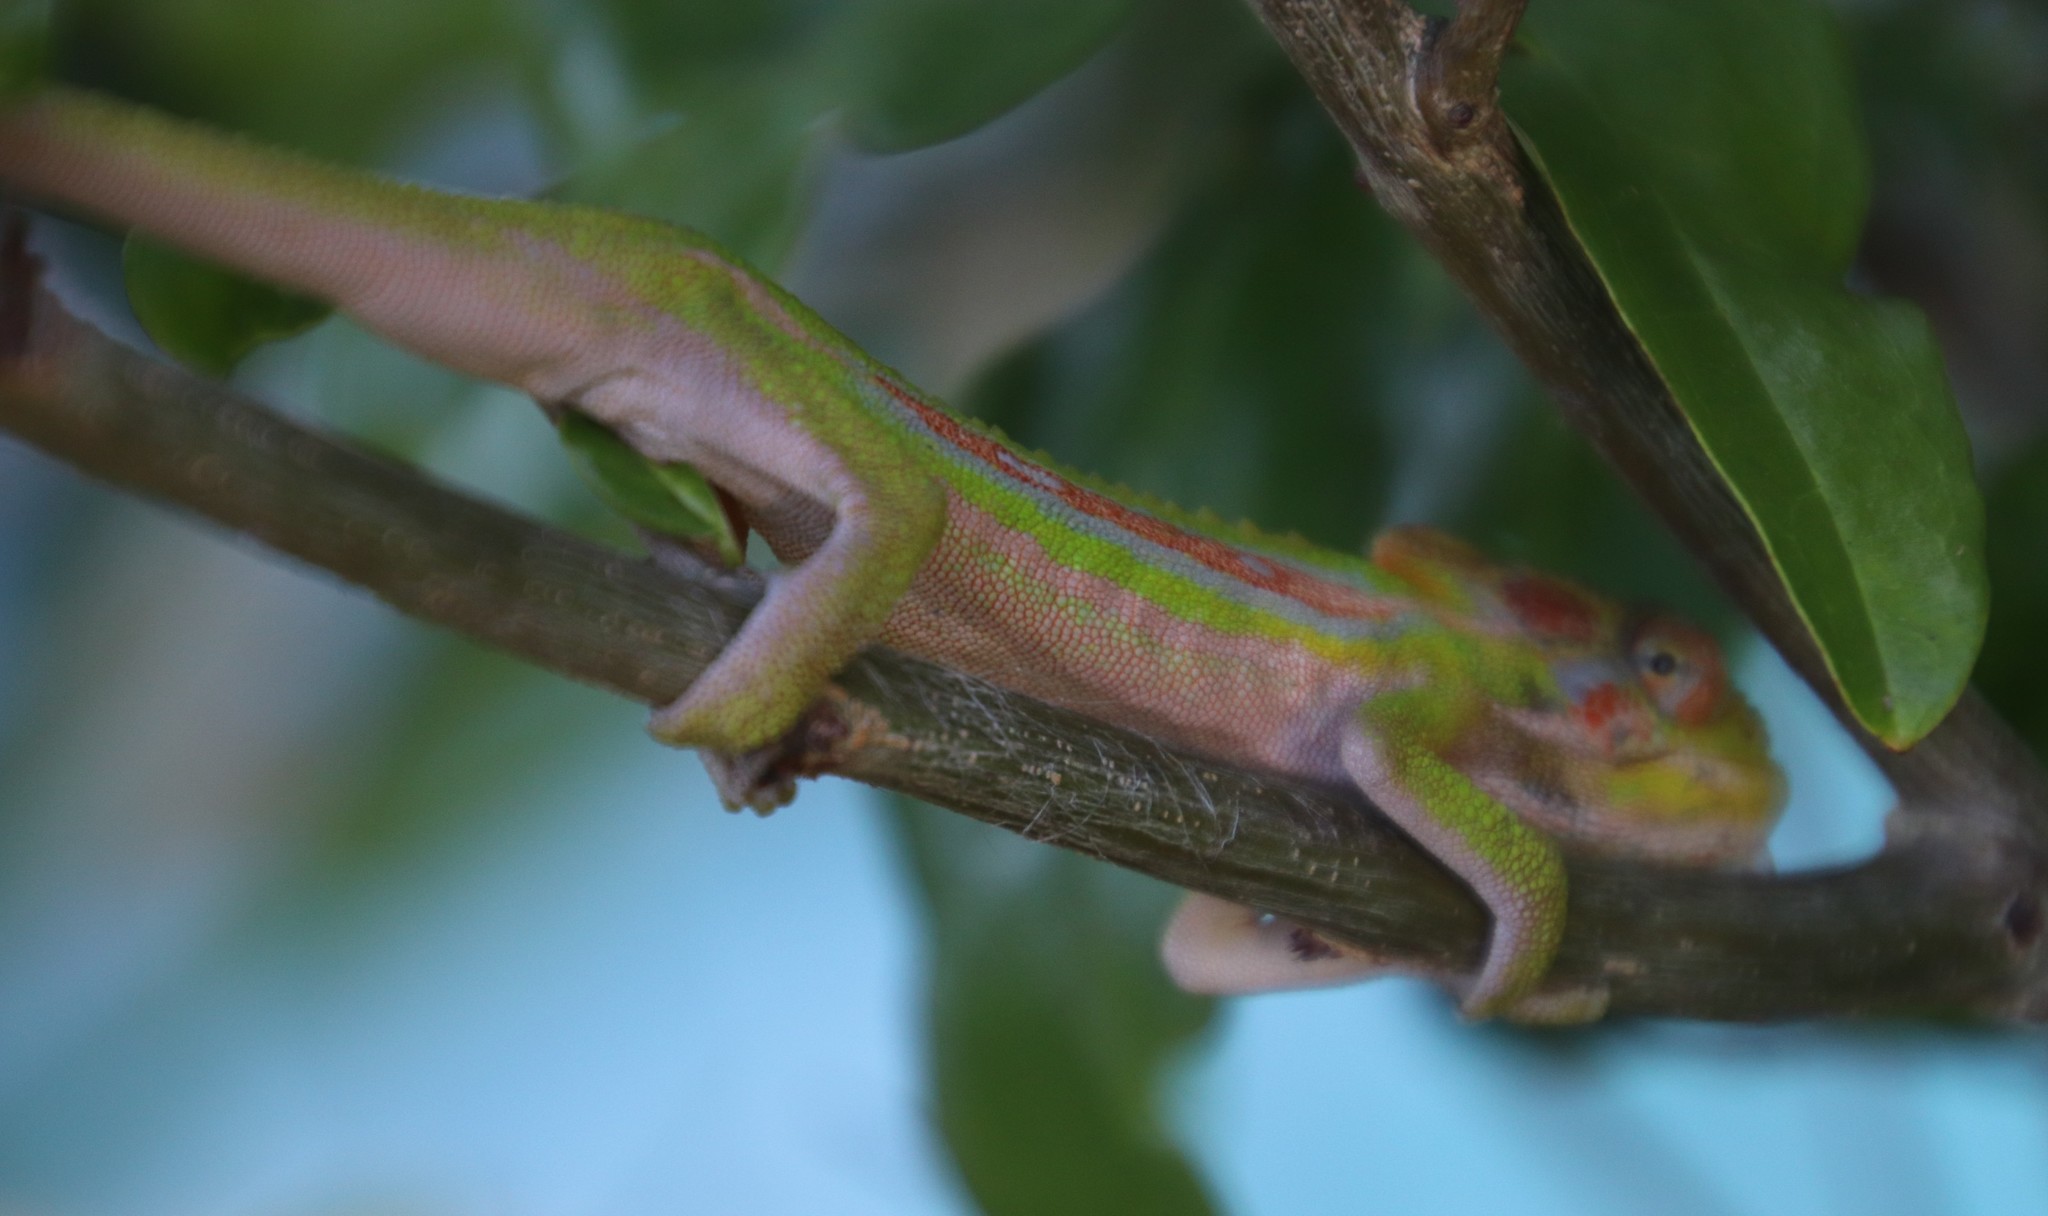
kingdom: Animalia
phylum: Chordata
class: Squamata
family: Chamaeleonidae
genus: Bradypodion
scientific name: Bradypodion pumilum
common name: Cape dwarf chameleon
